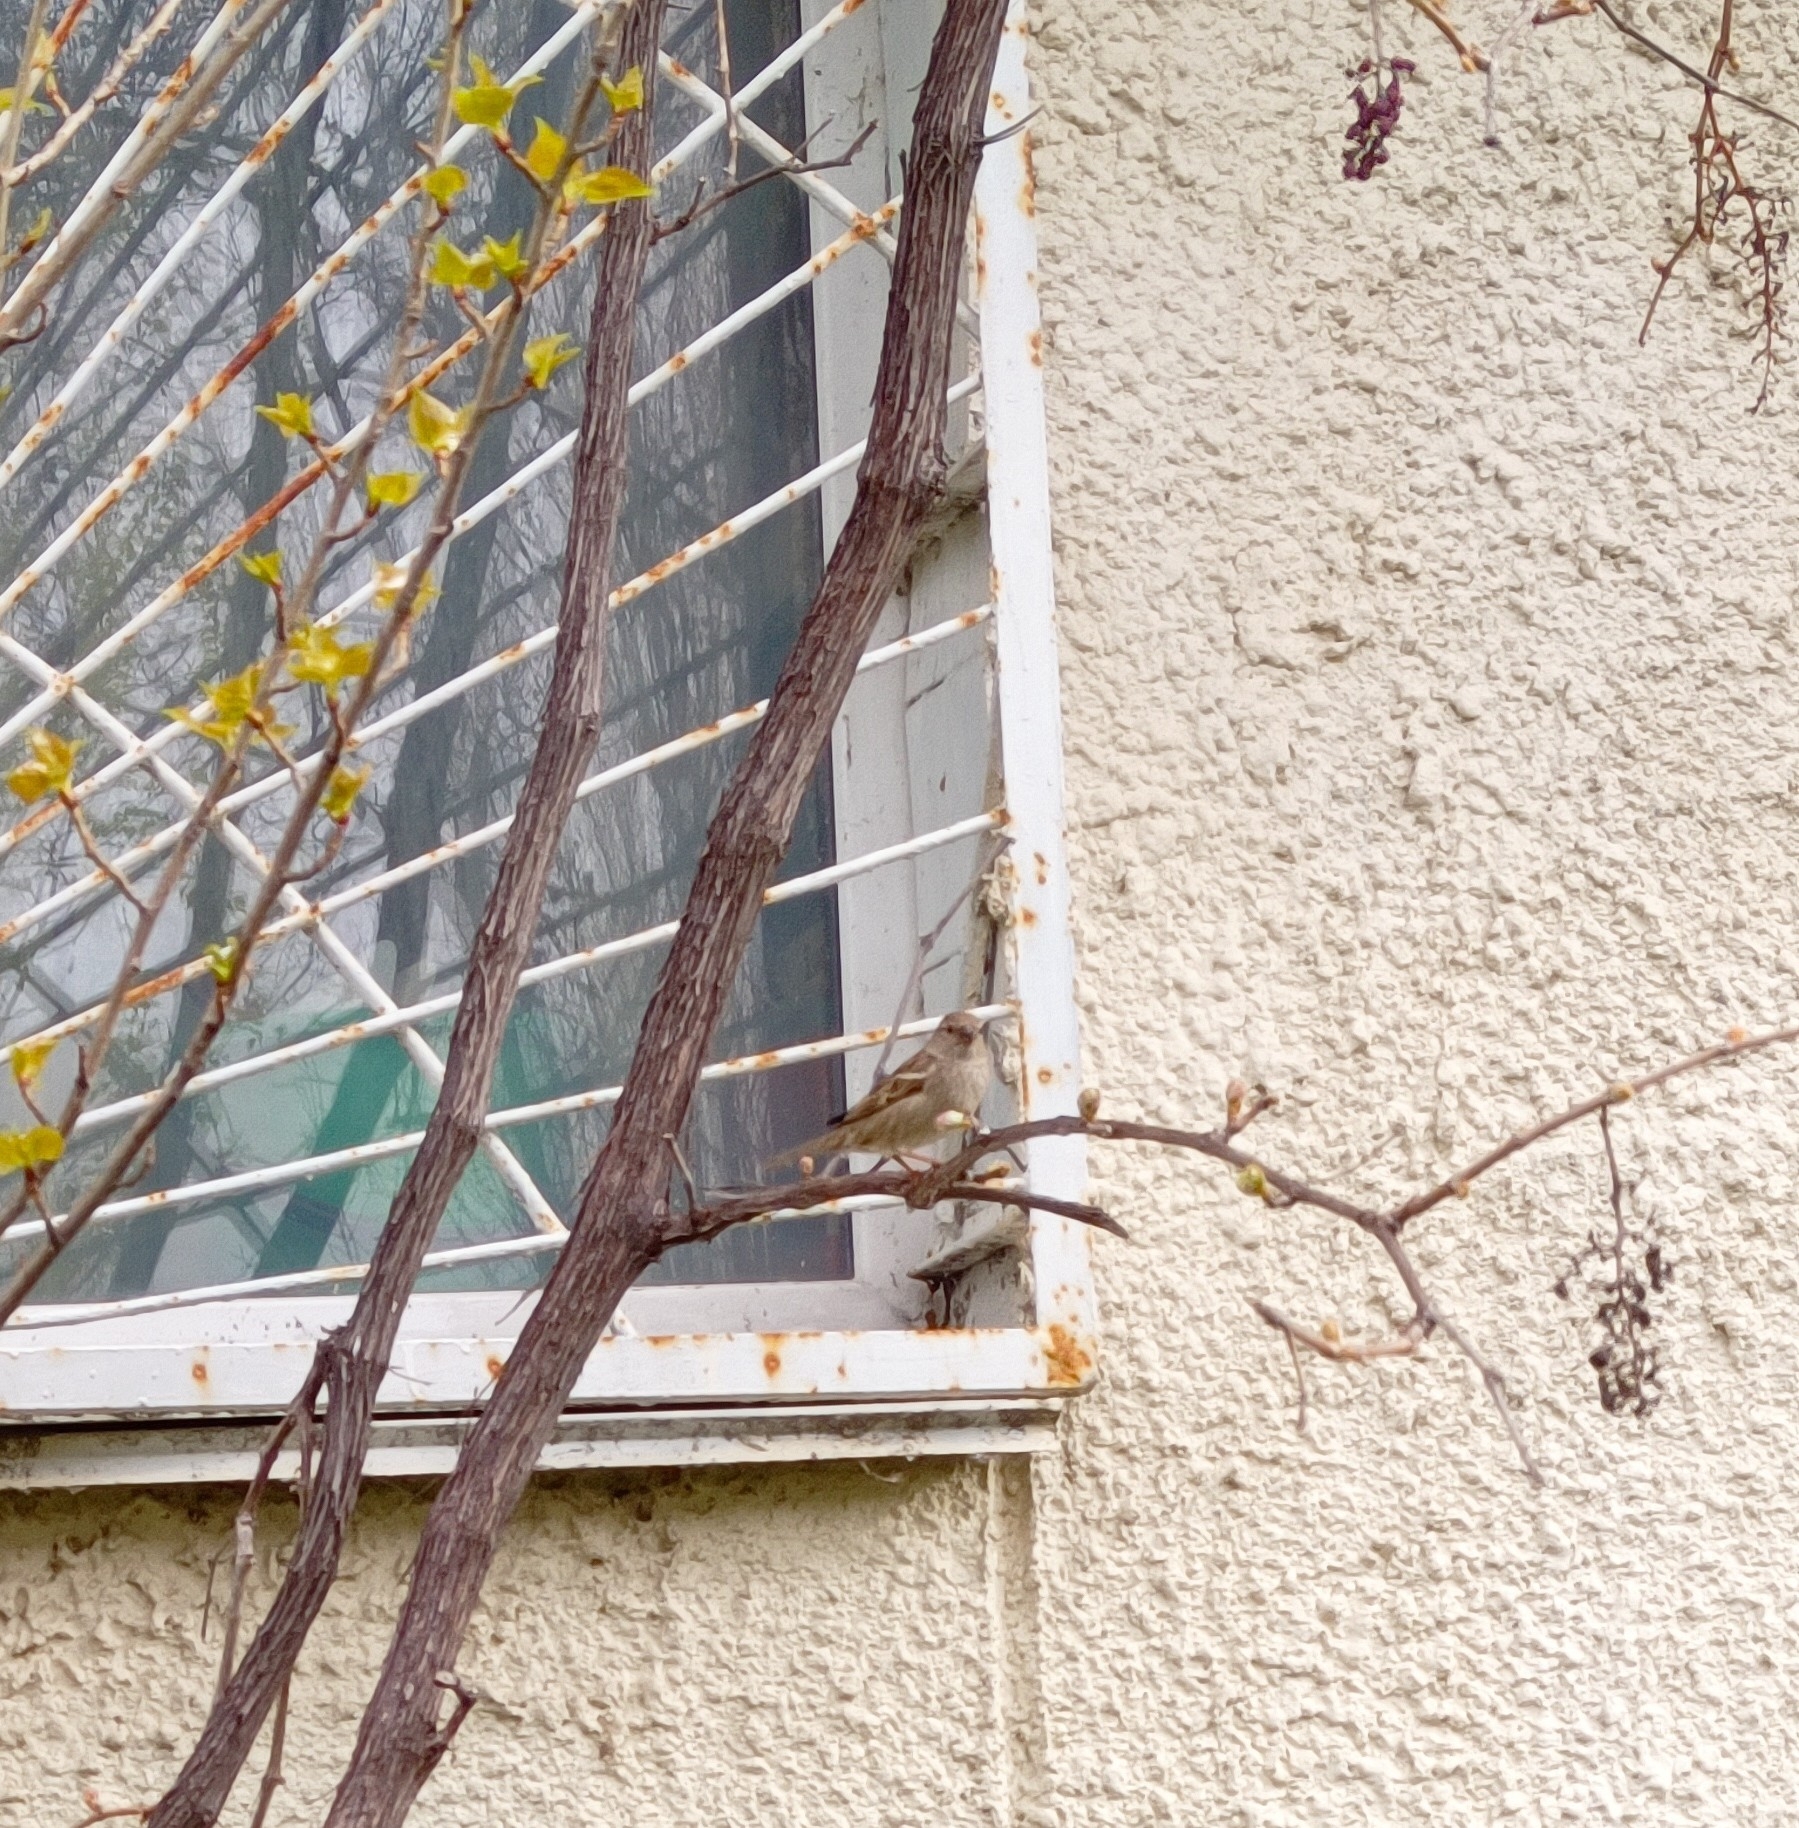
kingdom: Animalia
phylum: Chordata
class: Aves
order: Passeriformes
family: Passeridae
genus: Passer
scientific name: Passer domesticus
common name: House sparrow
